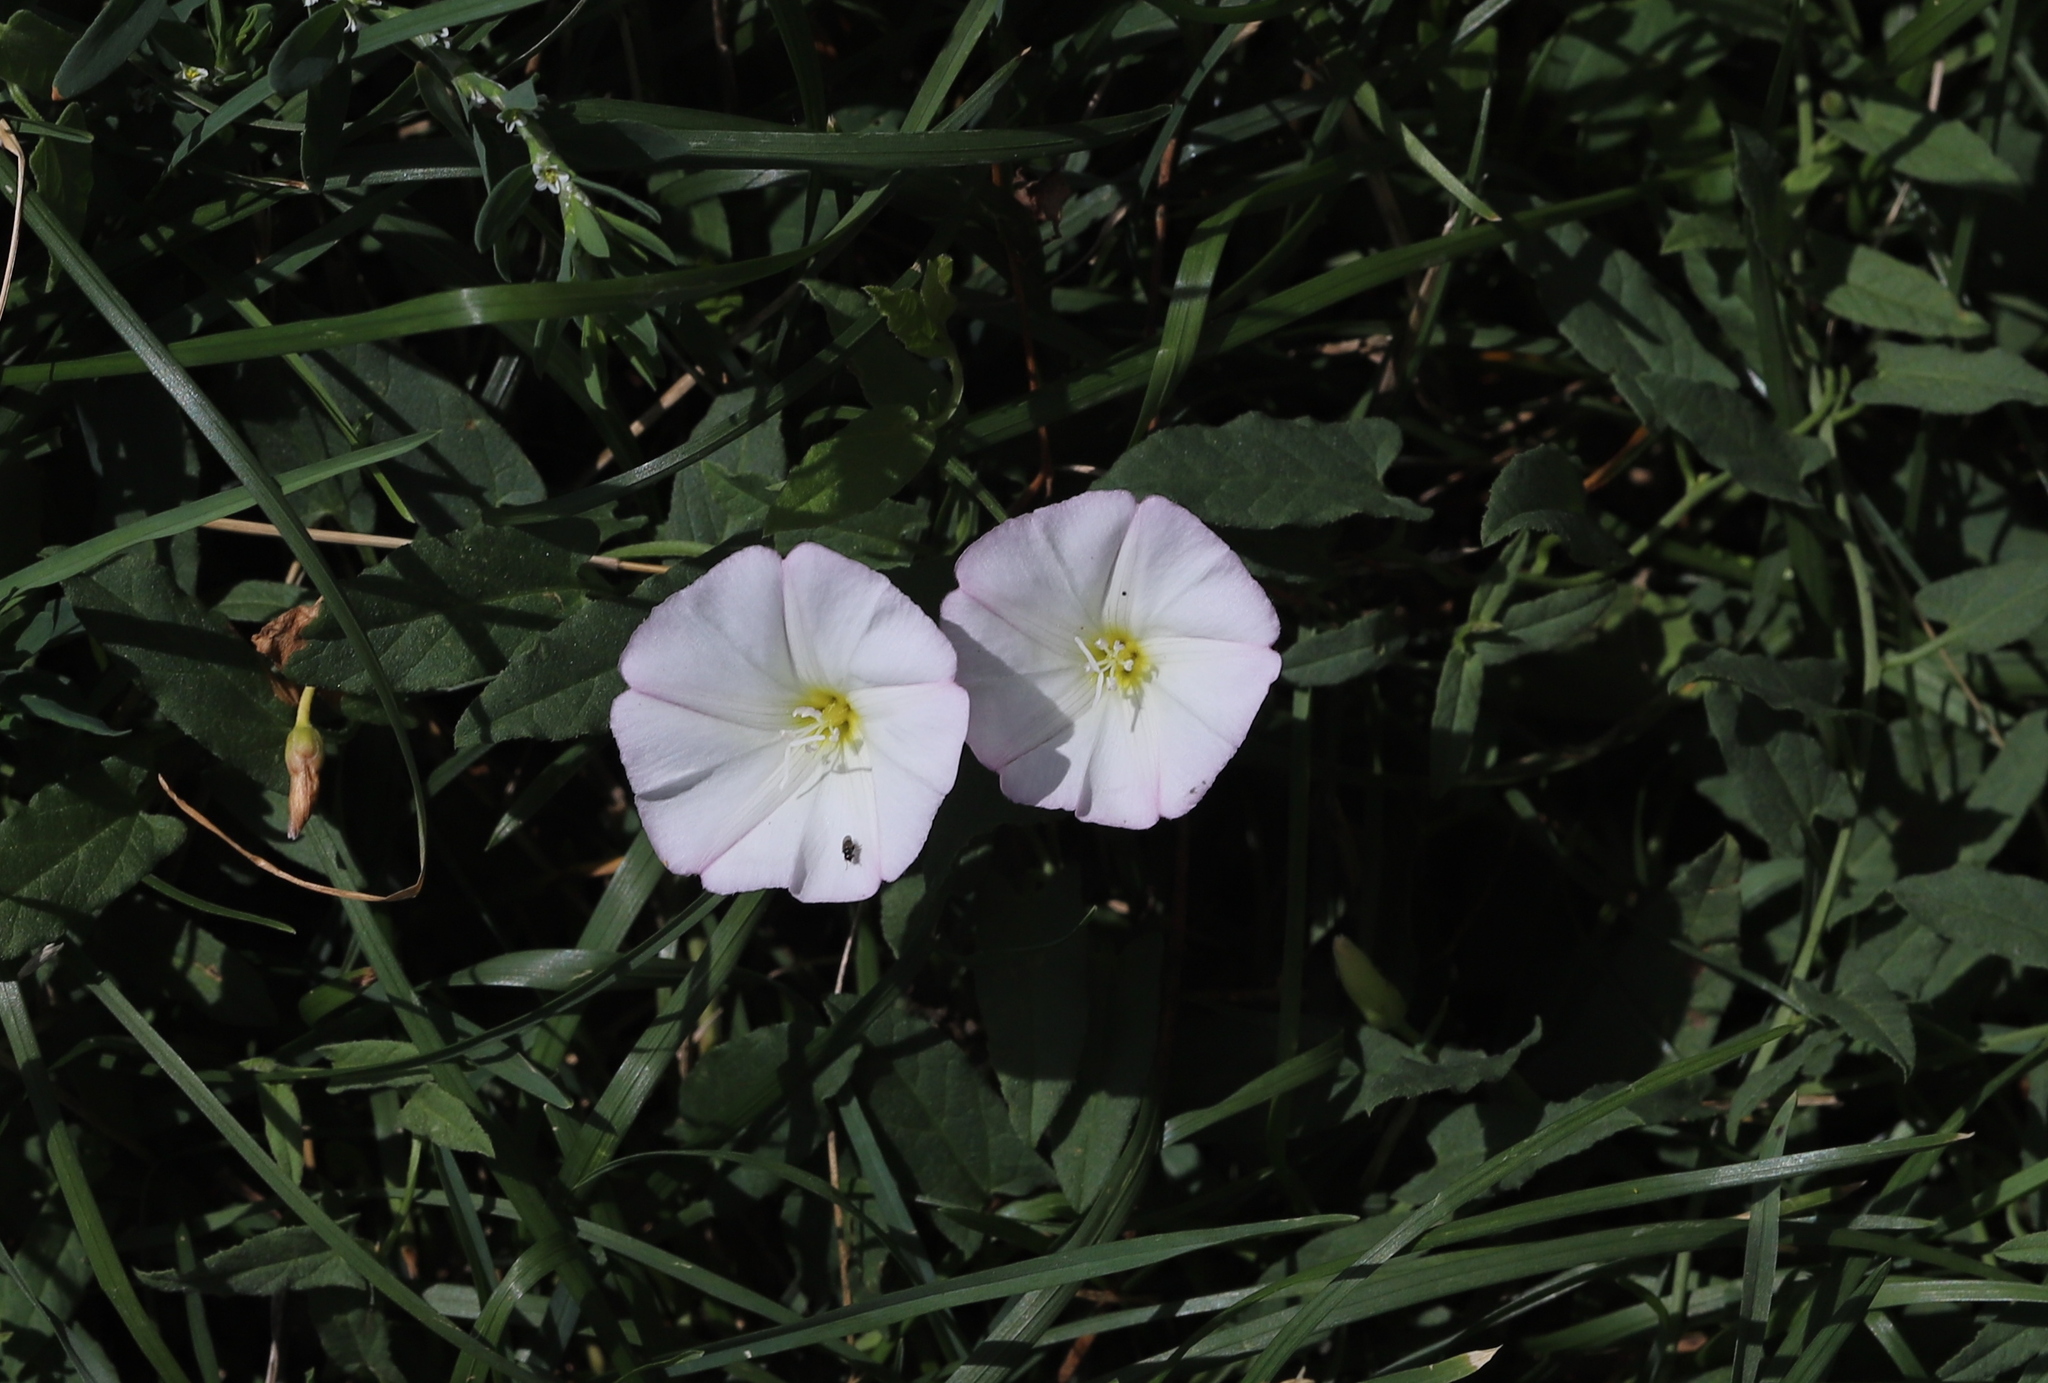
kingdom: Plantae
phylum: Tracheophyta
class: Magnoliopsida
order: Solanales
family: Convolvulaceae
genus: Convolvulus
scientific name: Convolvulus arvensis
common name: Field bindweed
